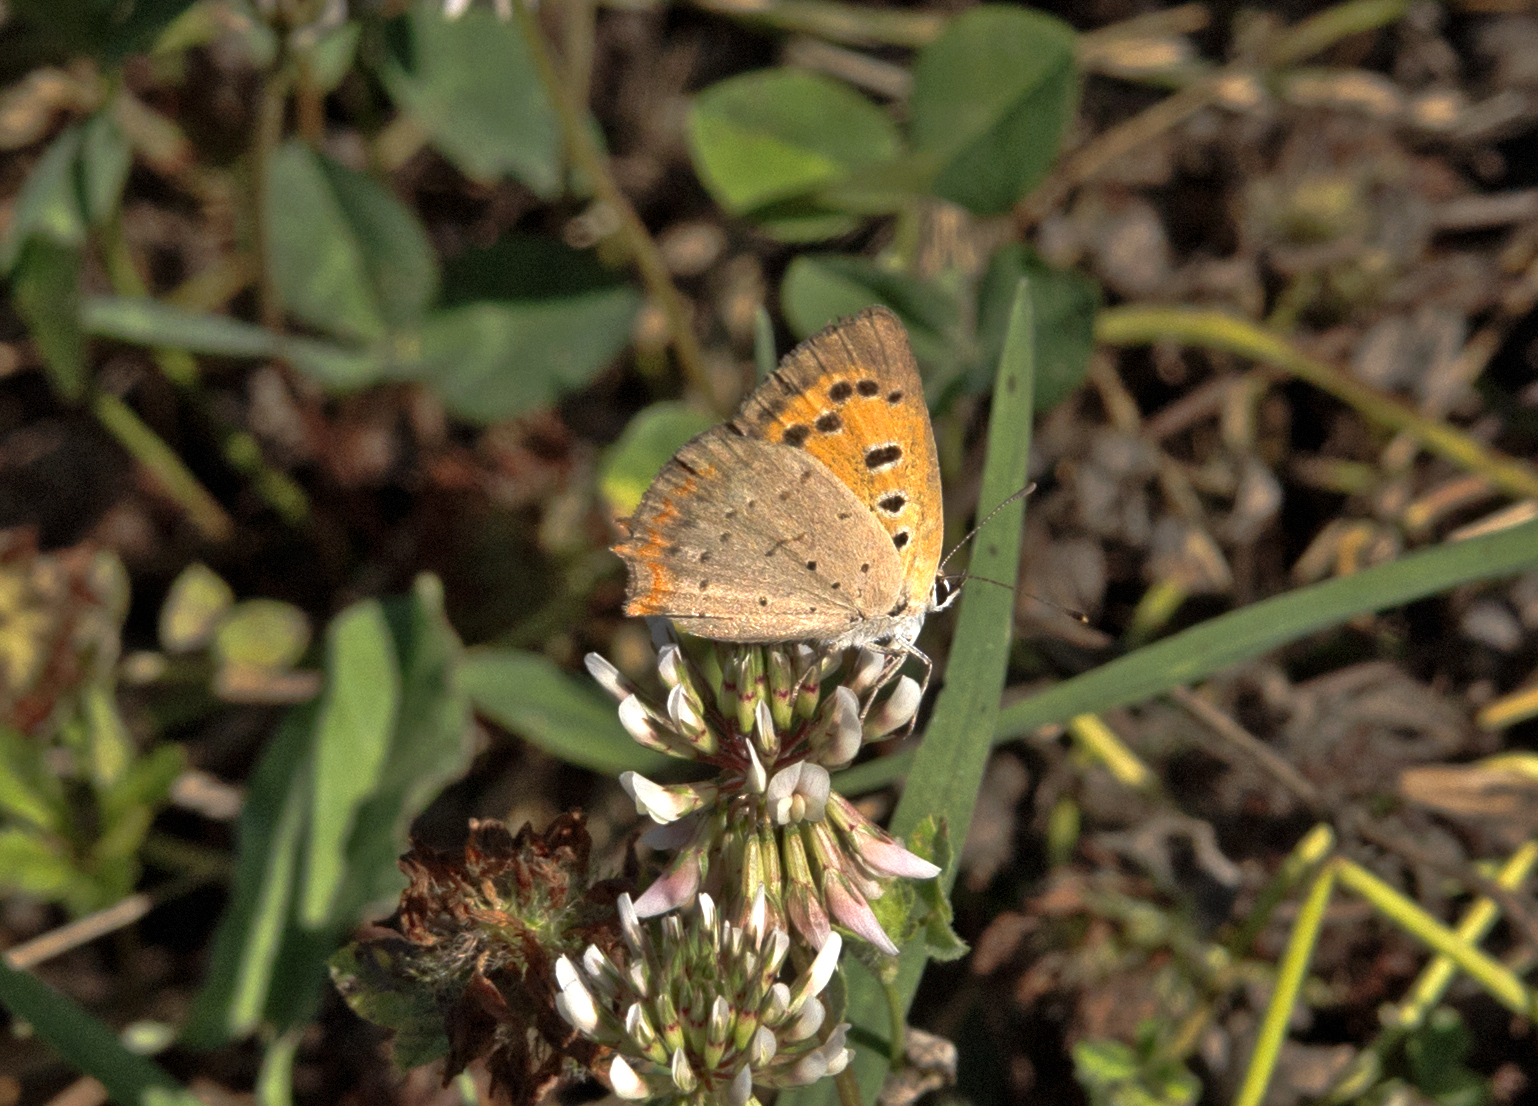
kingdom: Animalia
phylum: Arthropoda
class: Insecta
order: Lepidoptera
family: Lycaenidae
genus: Lycaena
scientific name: Lycaena phlaeas
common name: Small copper
